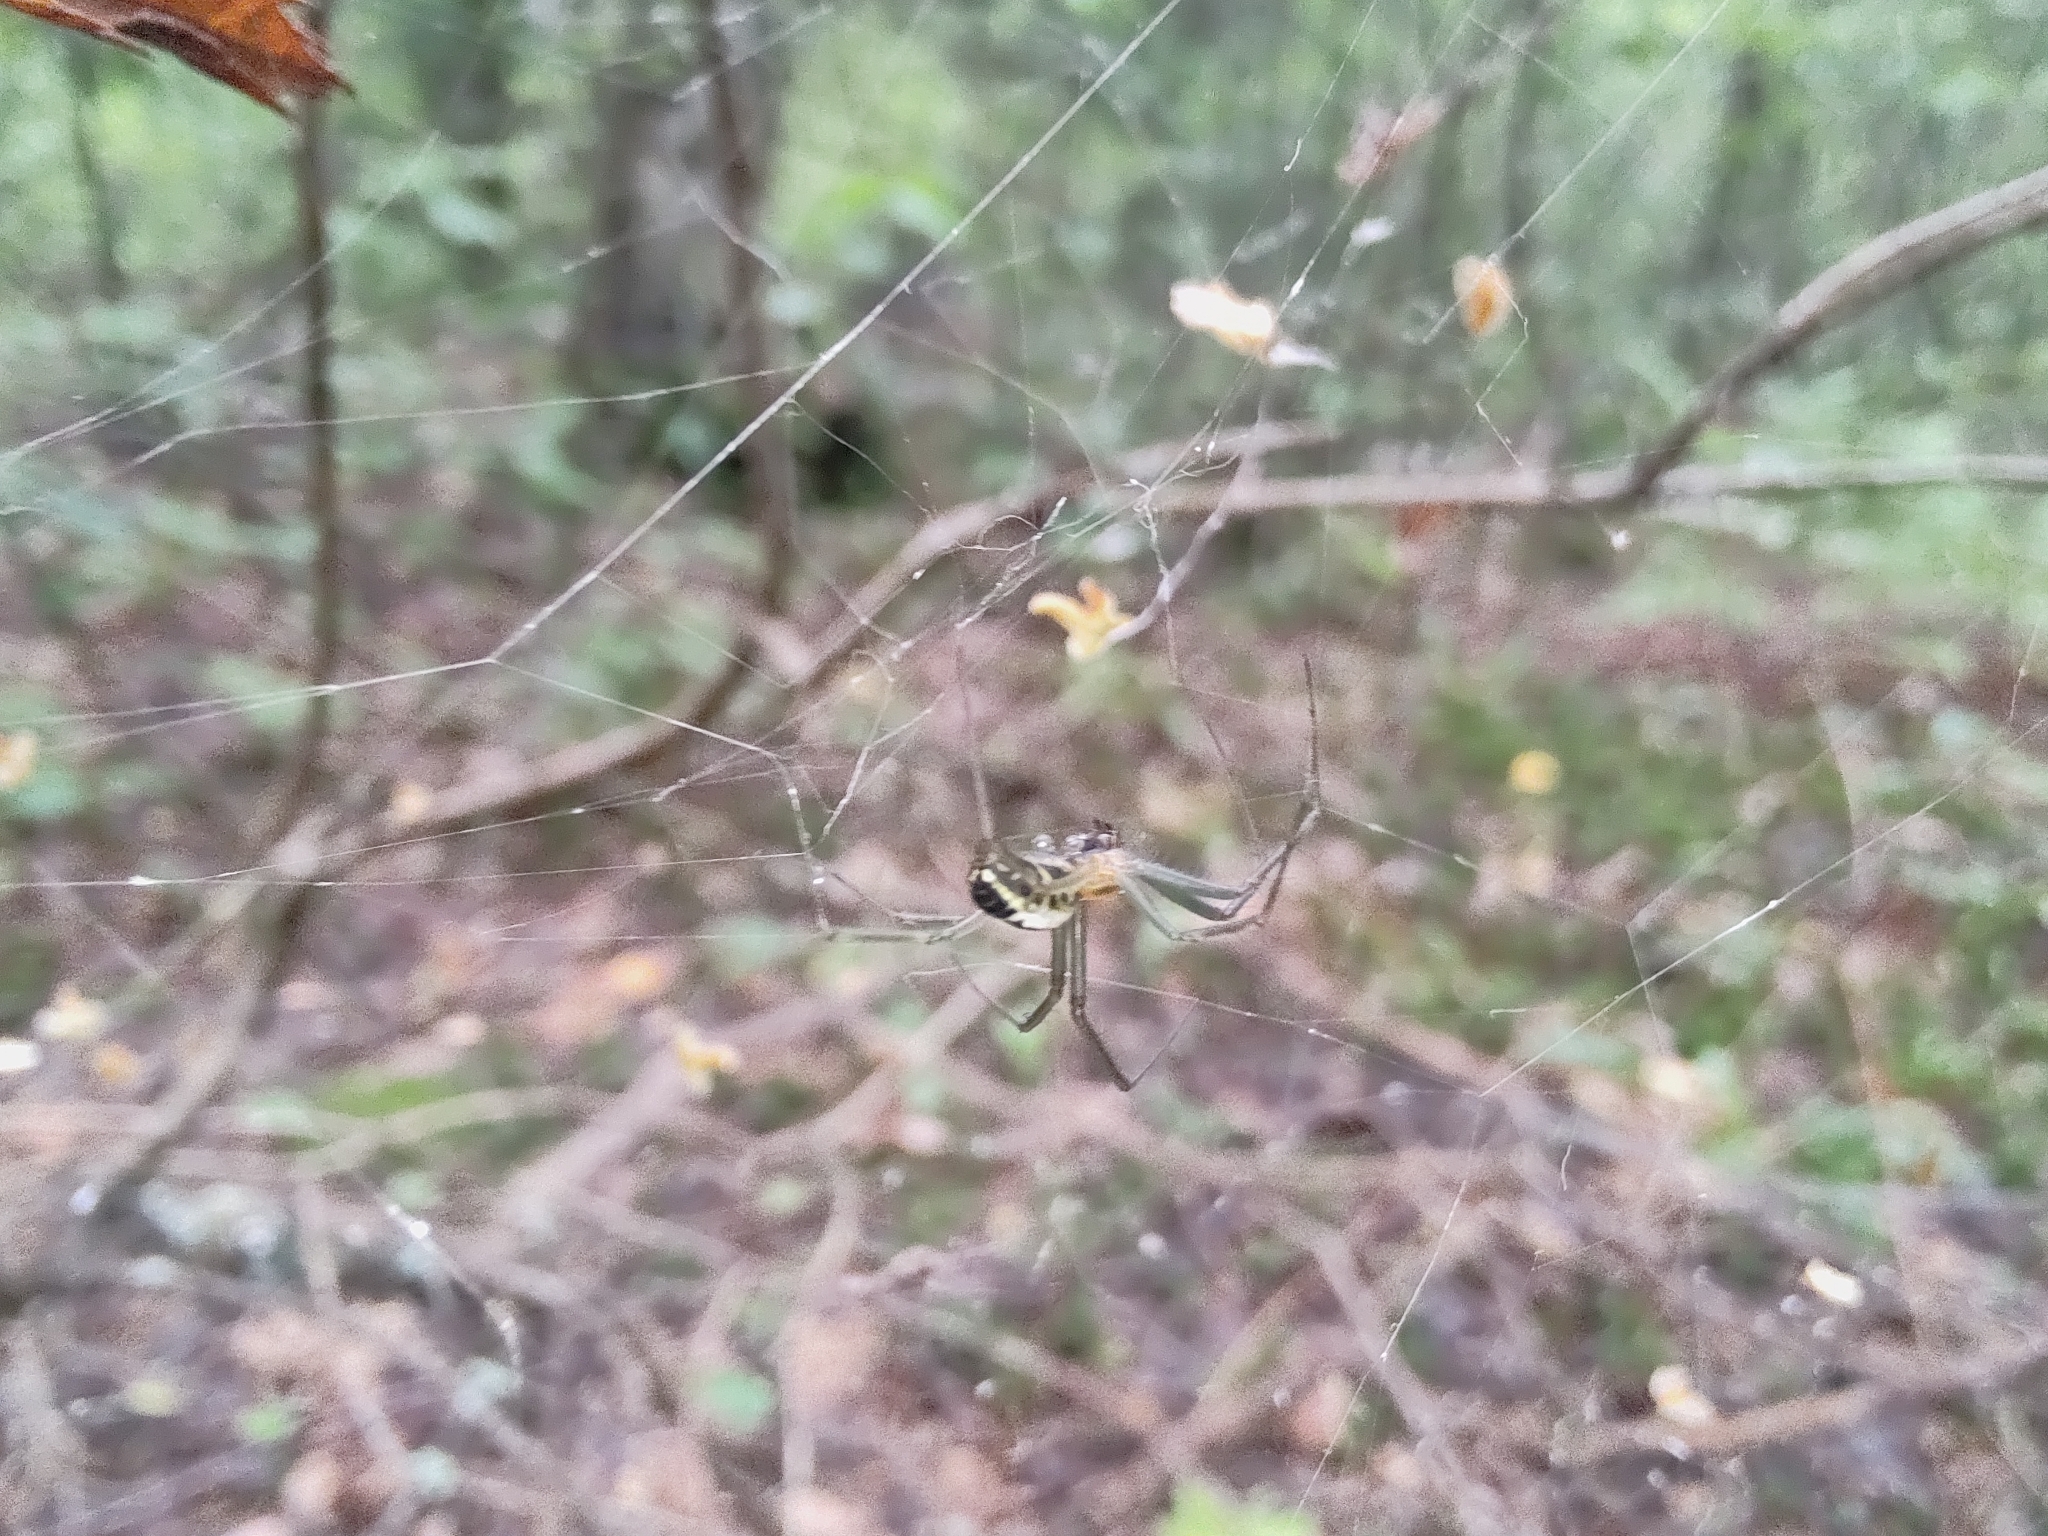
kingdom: Animalia
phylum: Arthropoda
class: Arachnida
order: Araneae
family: Linyphiidae
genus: Neriene
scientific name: Neriene emphana
